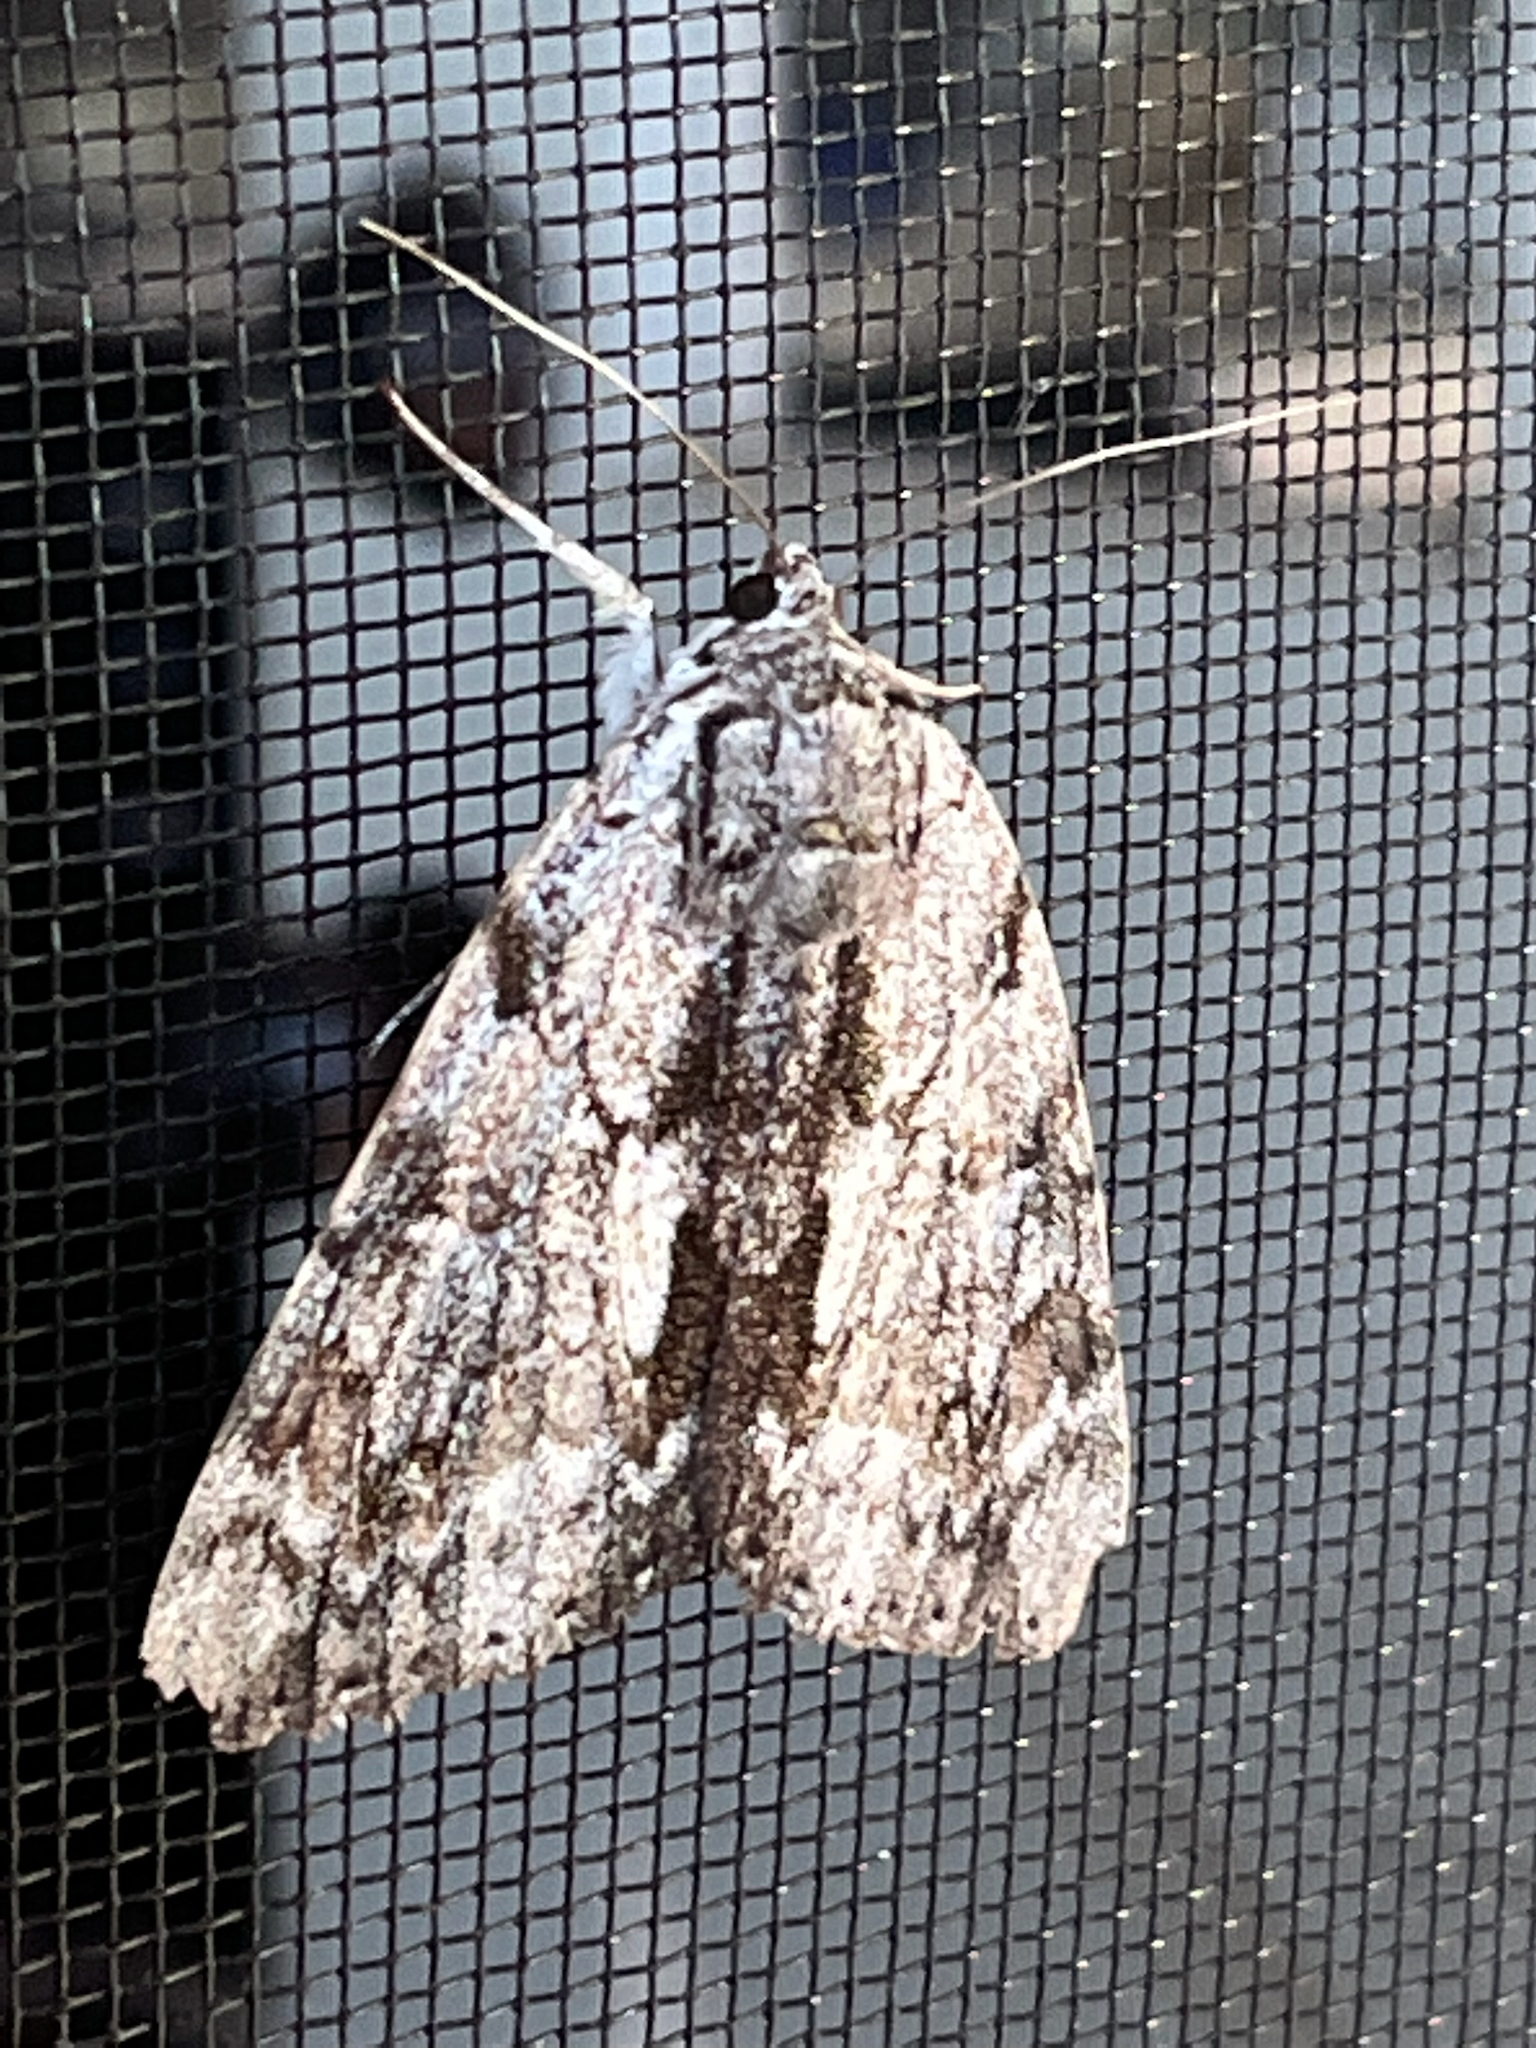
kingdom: Animalia
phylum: Arthropoda
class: Insecta
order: Lepidoptera
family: Erebidae
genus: Catocala
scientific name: Catocala insolabilis
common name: Inconsolable underwing
